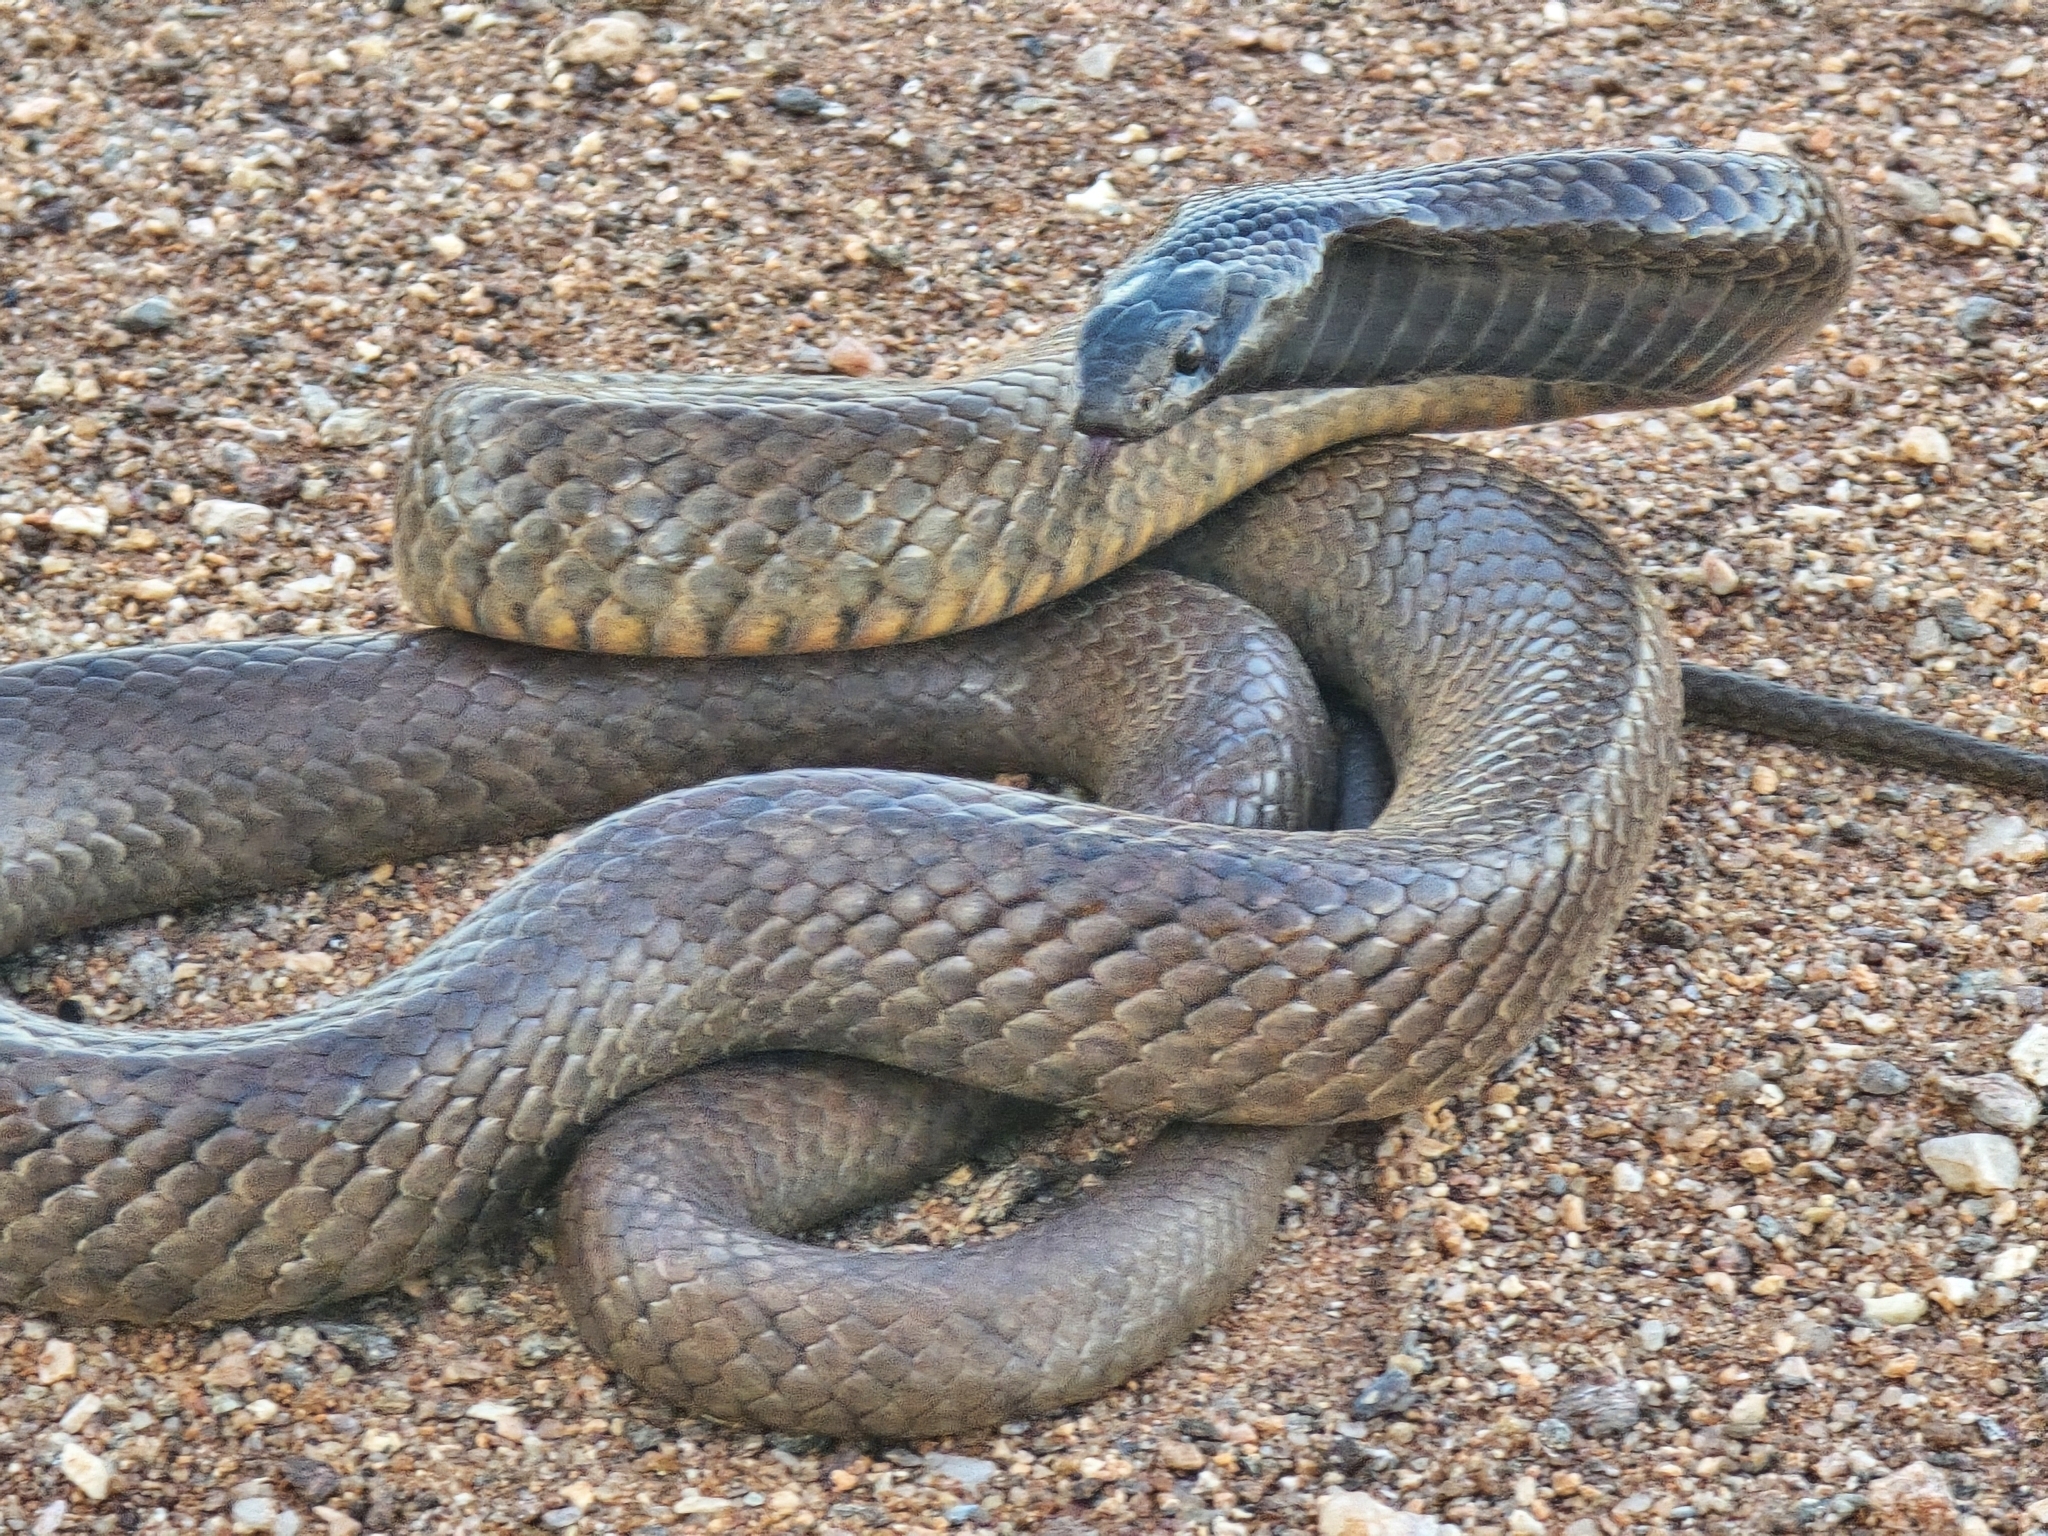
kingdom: Animalia
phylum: Chordata
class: Squamata
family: Elapidae
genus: Pseudonaja
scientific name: Pseudonaja aspidorhyncha
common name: Strap-snouted brown snake
